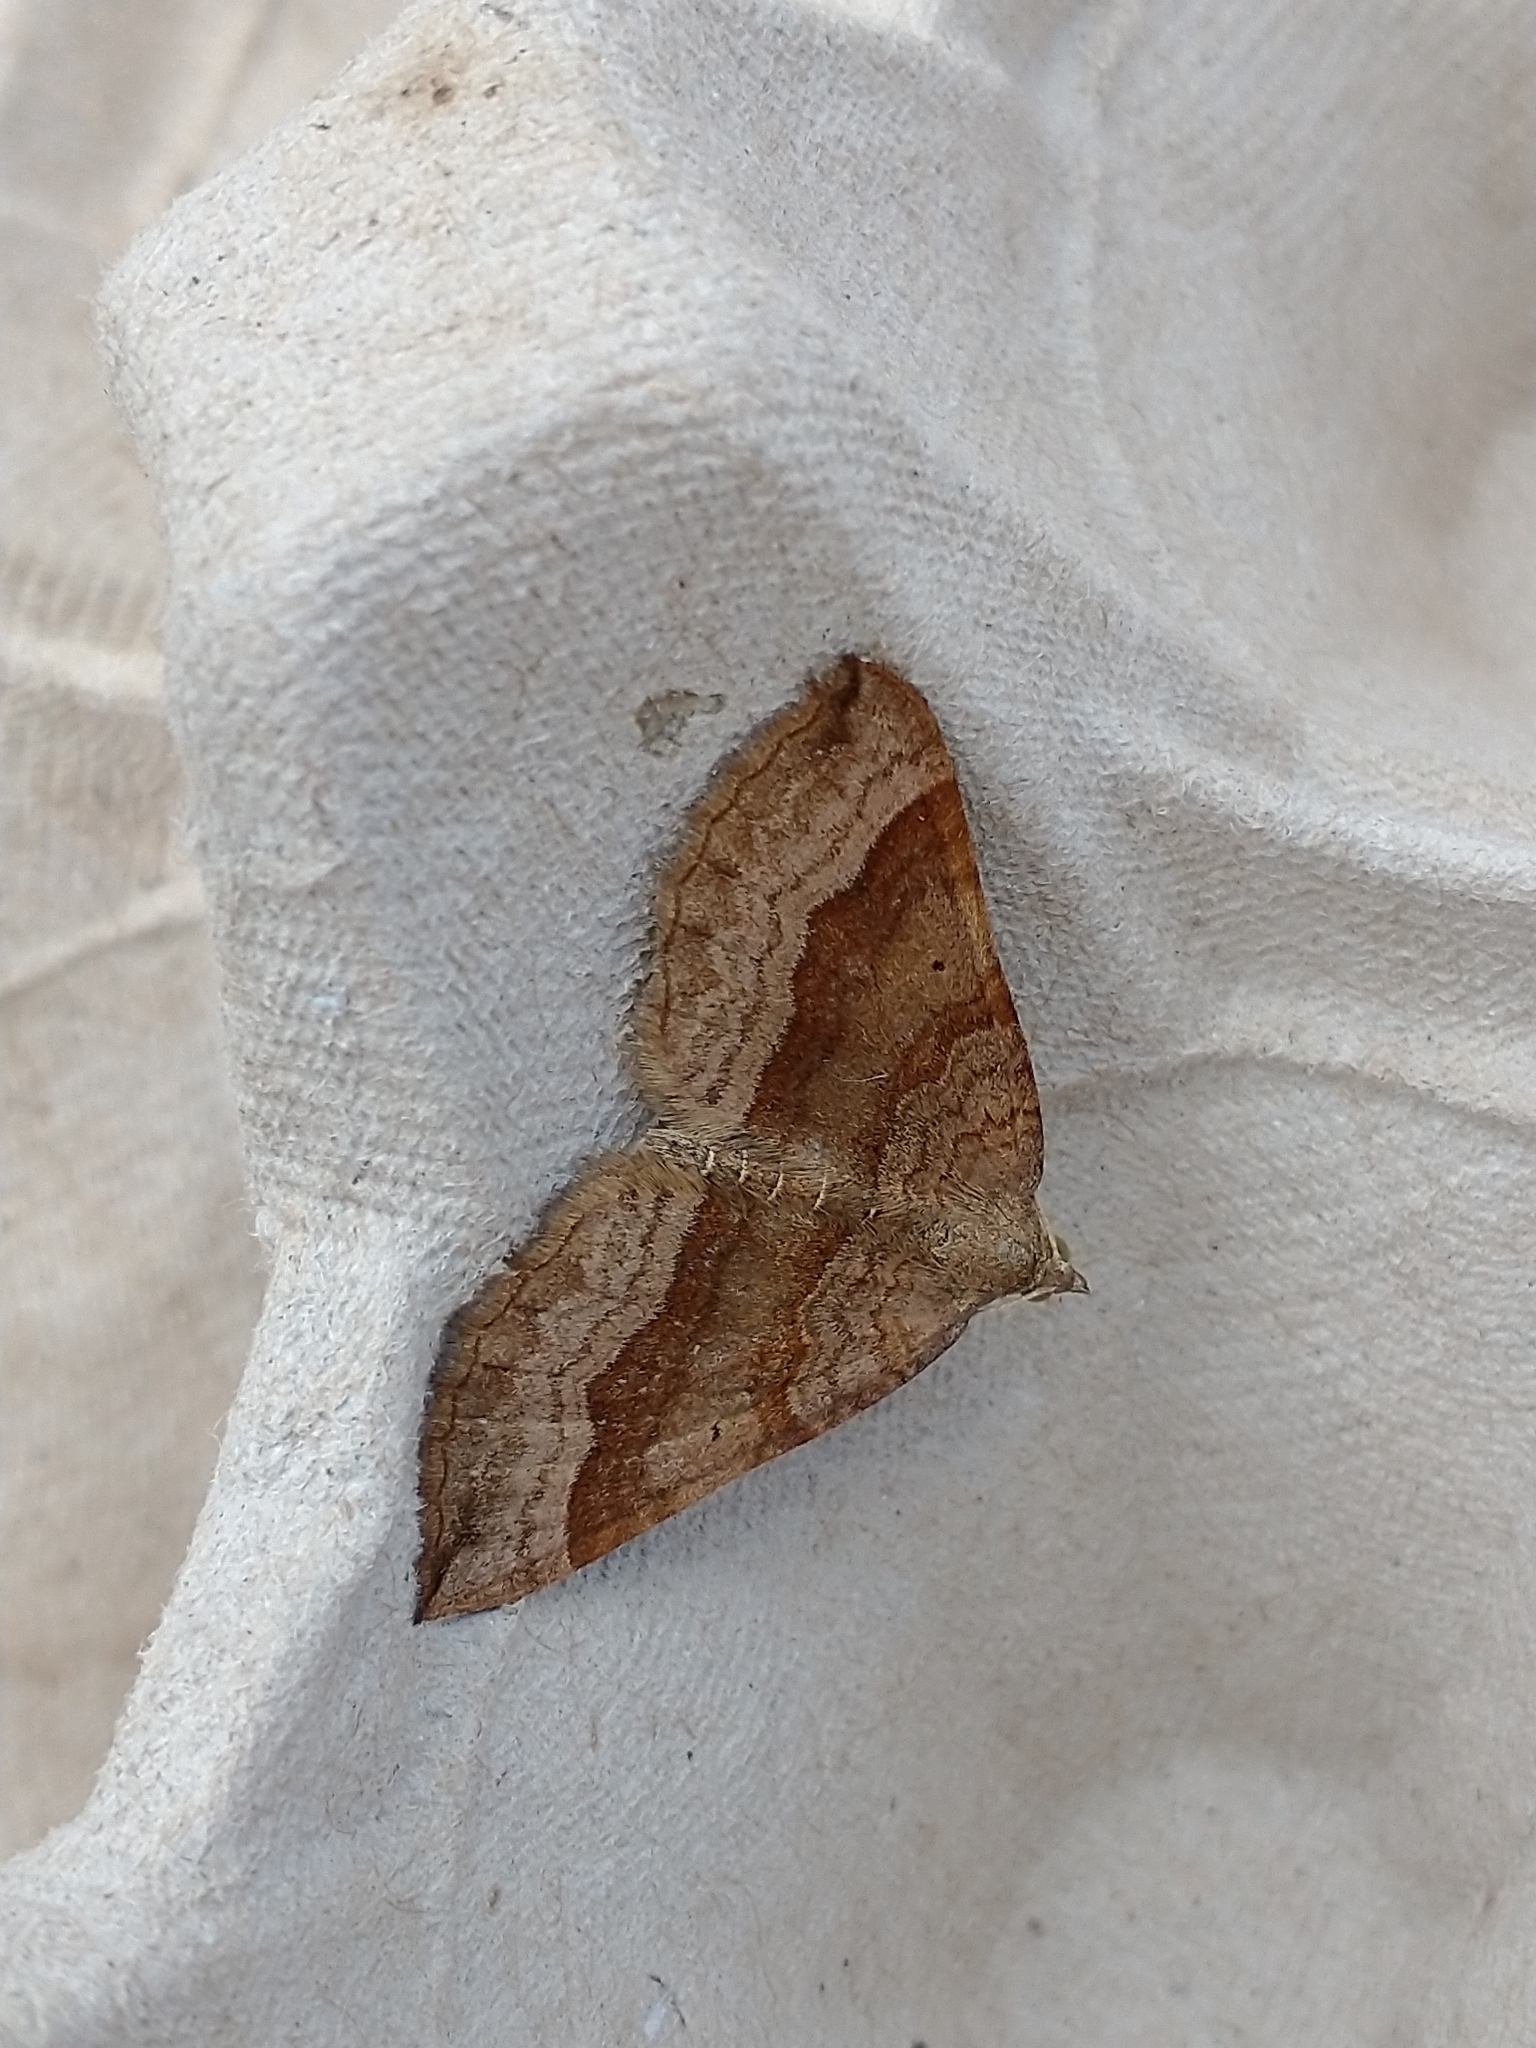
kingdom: Animalia
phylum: Arthropoda
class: Insecta
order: Lepidoptera
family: Geometridae
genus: Scotopteryx
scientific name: Scotopteryx chenopodiata
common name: Shaded broad-bar
